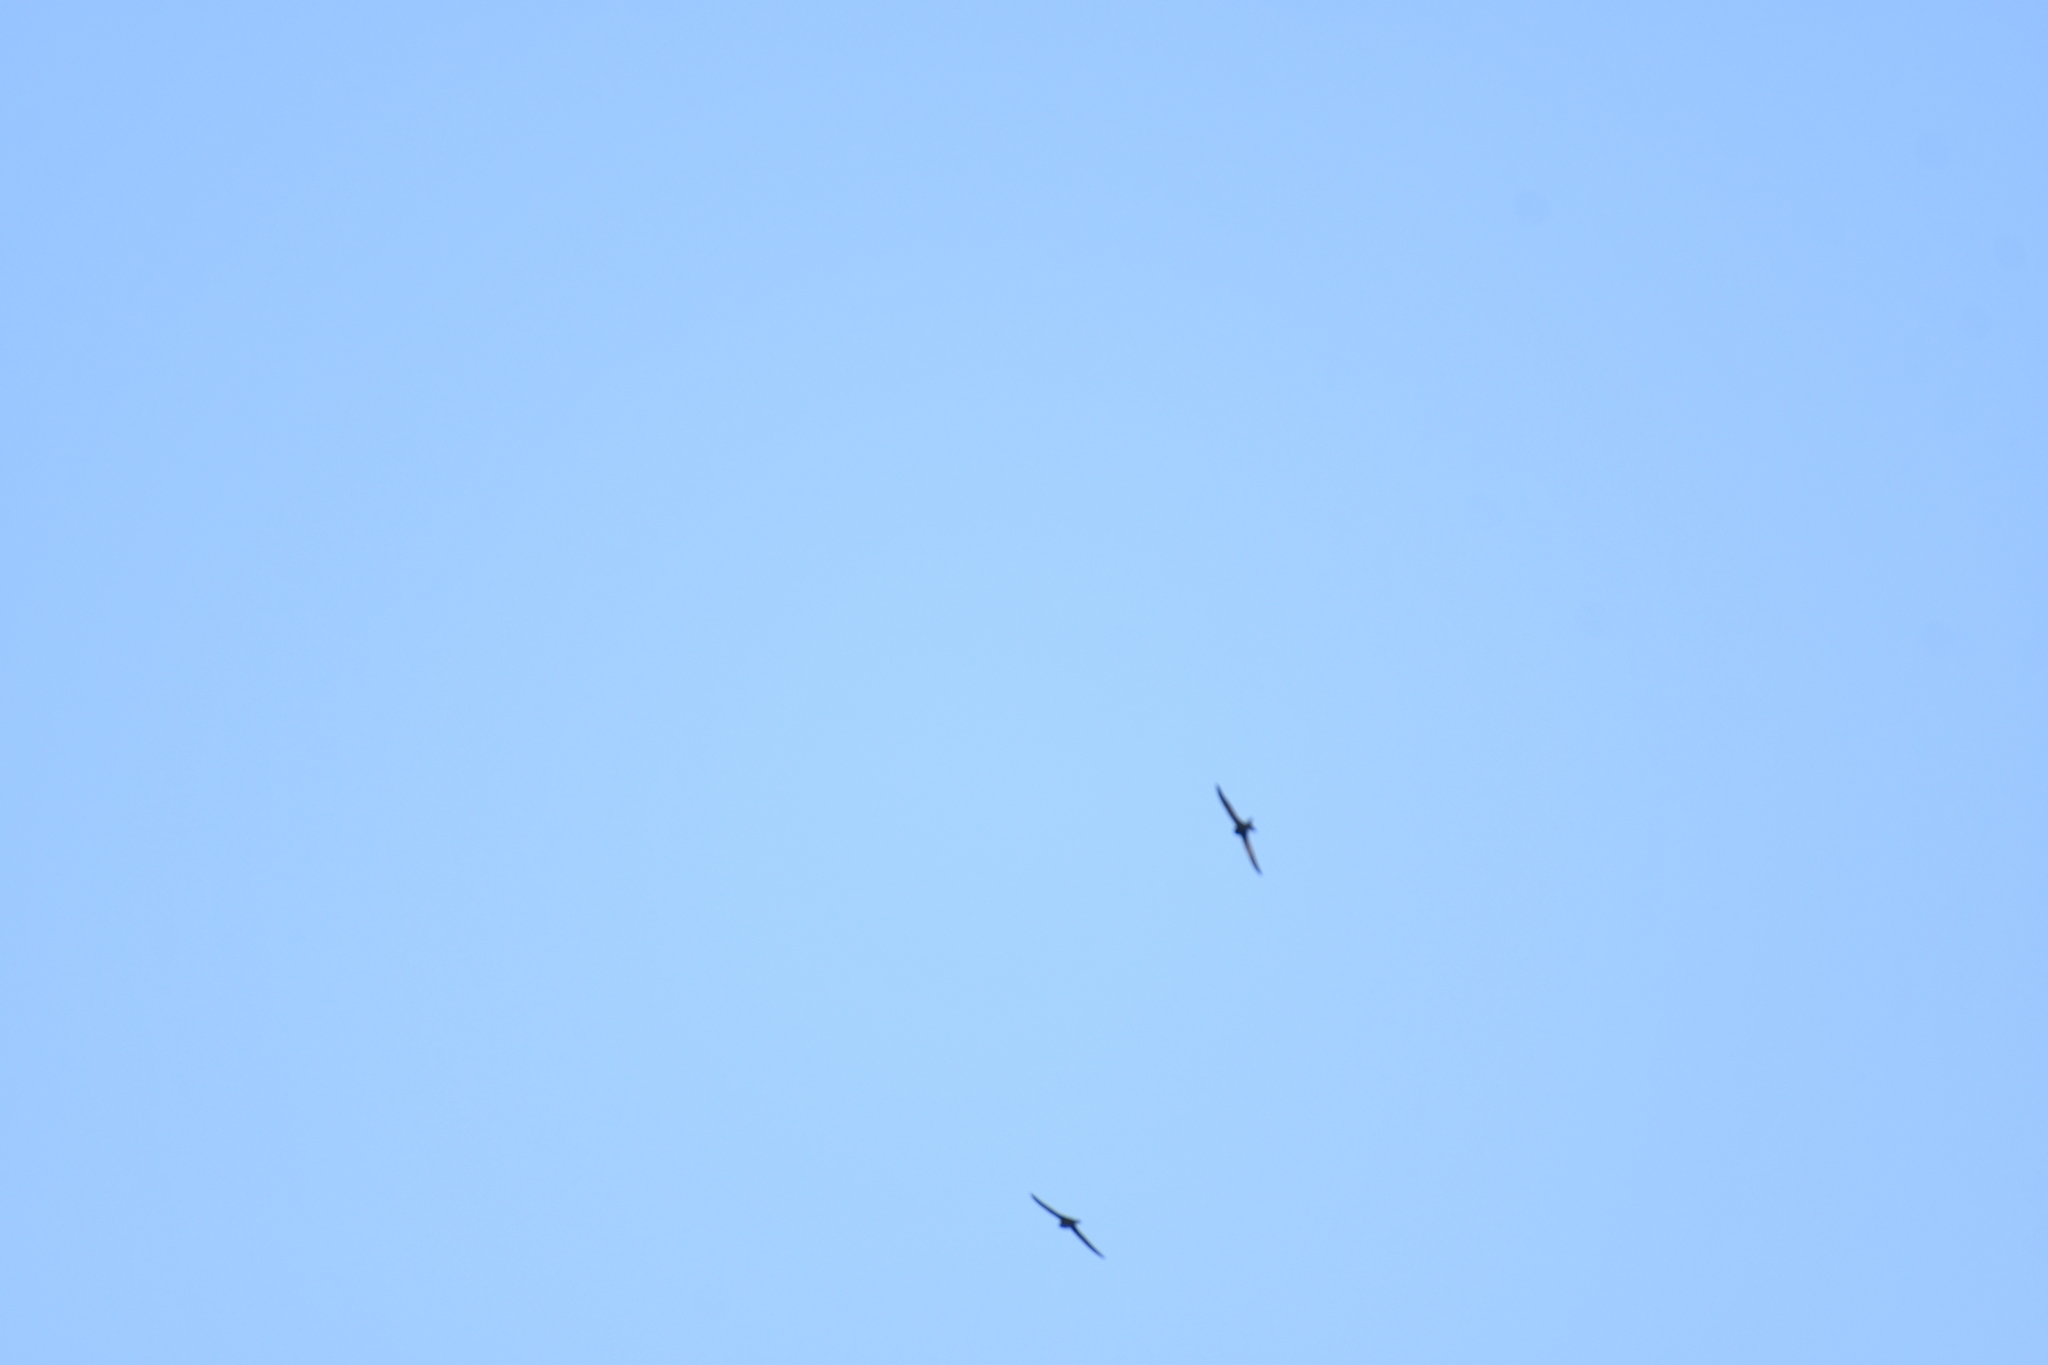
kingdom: Animalia
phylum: Chordata
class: Aves
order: Apodiformes
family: Apodidae
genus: Apus
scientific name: Apus apus
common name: Common swift
